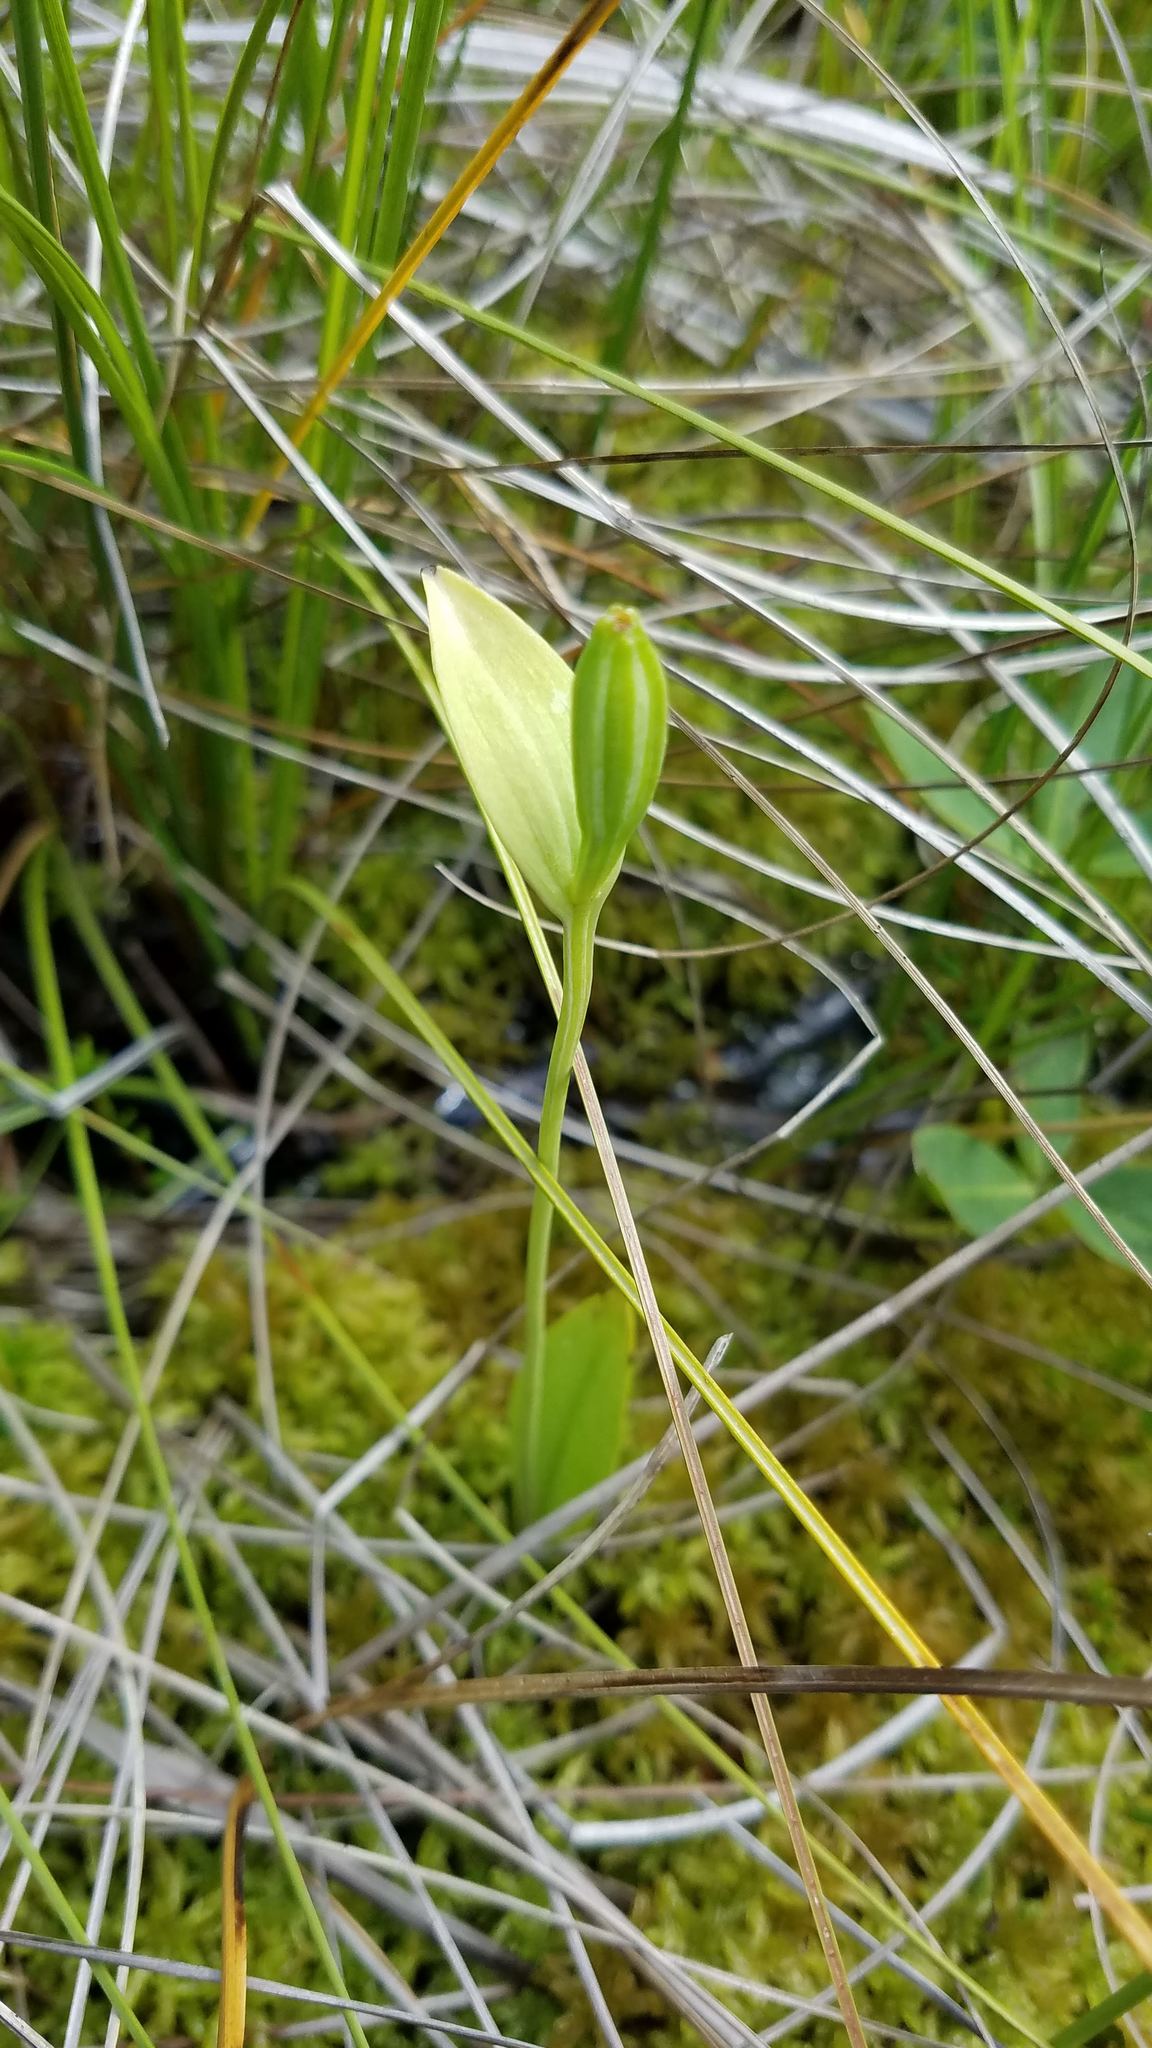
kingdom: Plantae
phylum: Tracheophyta
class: Liliopsida
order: Asparagales
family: Orchidaceae
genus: Pogonia
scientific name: Pogonia ophioglossoides
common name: Rose pogonia
